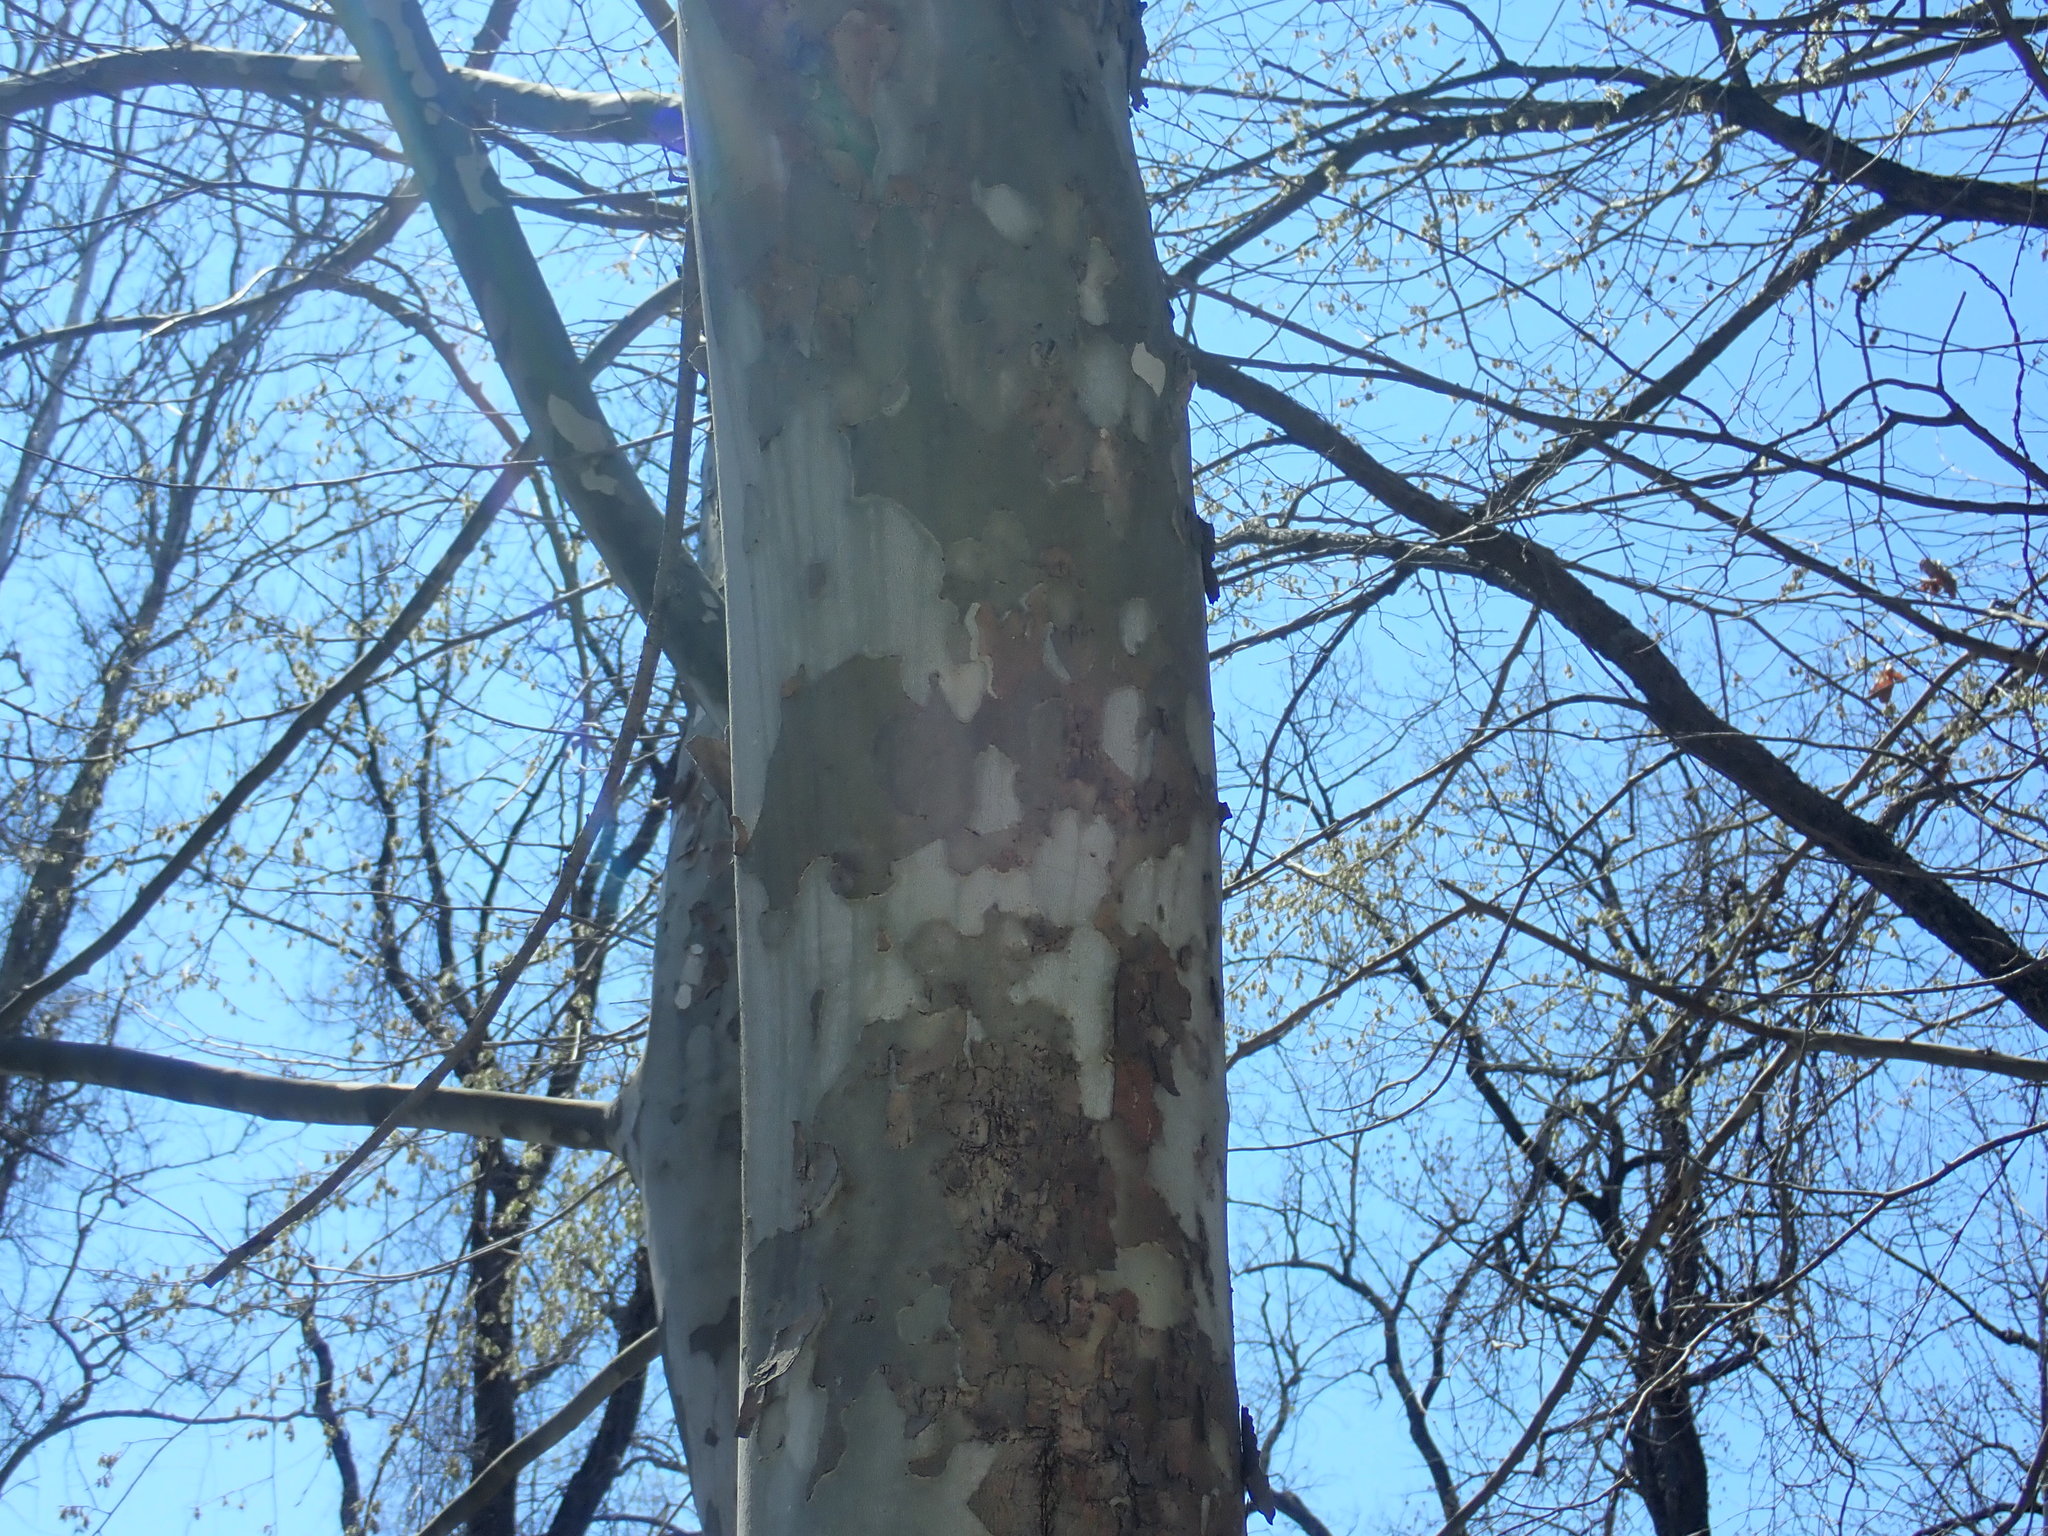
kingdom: Plantae
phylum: Tracheophyta
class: Magnoliopsida
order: Proteales
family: Platanaceae
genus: Platanus
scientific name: Platanus occidentalis
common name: American sycamore
